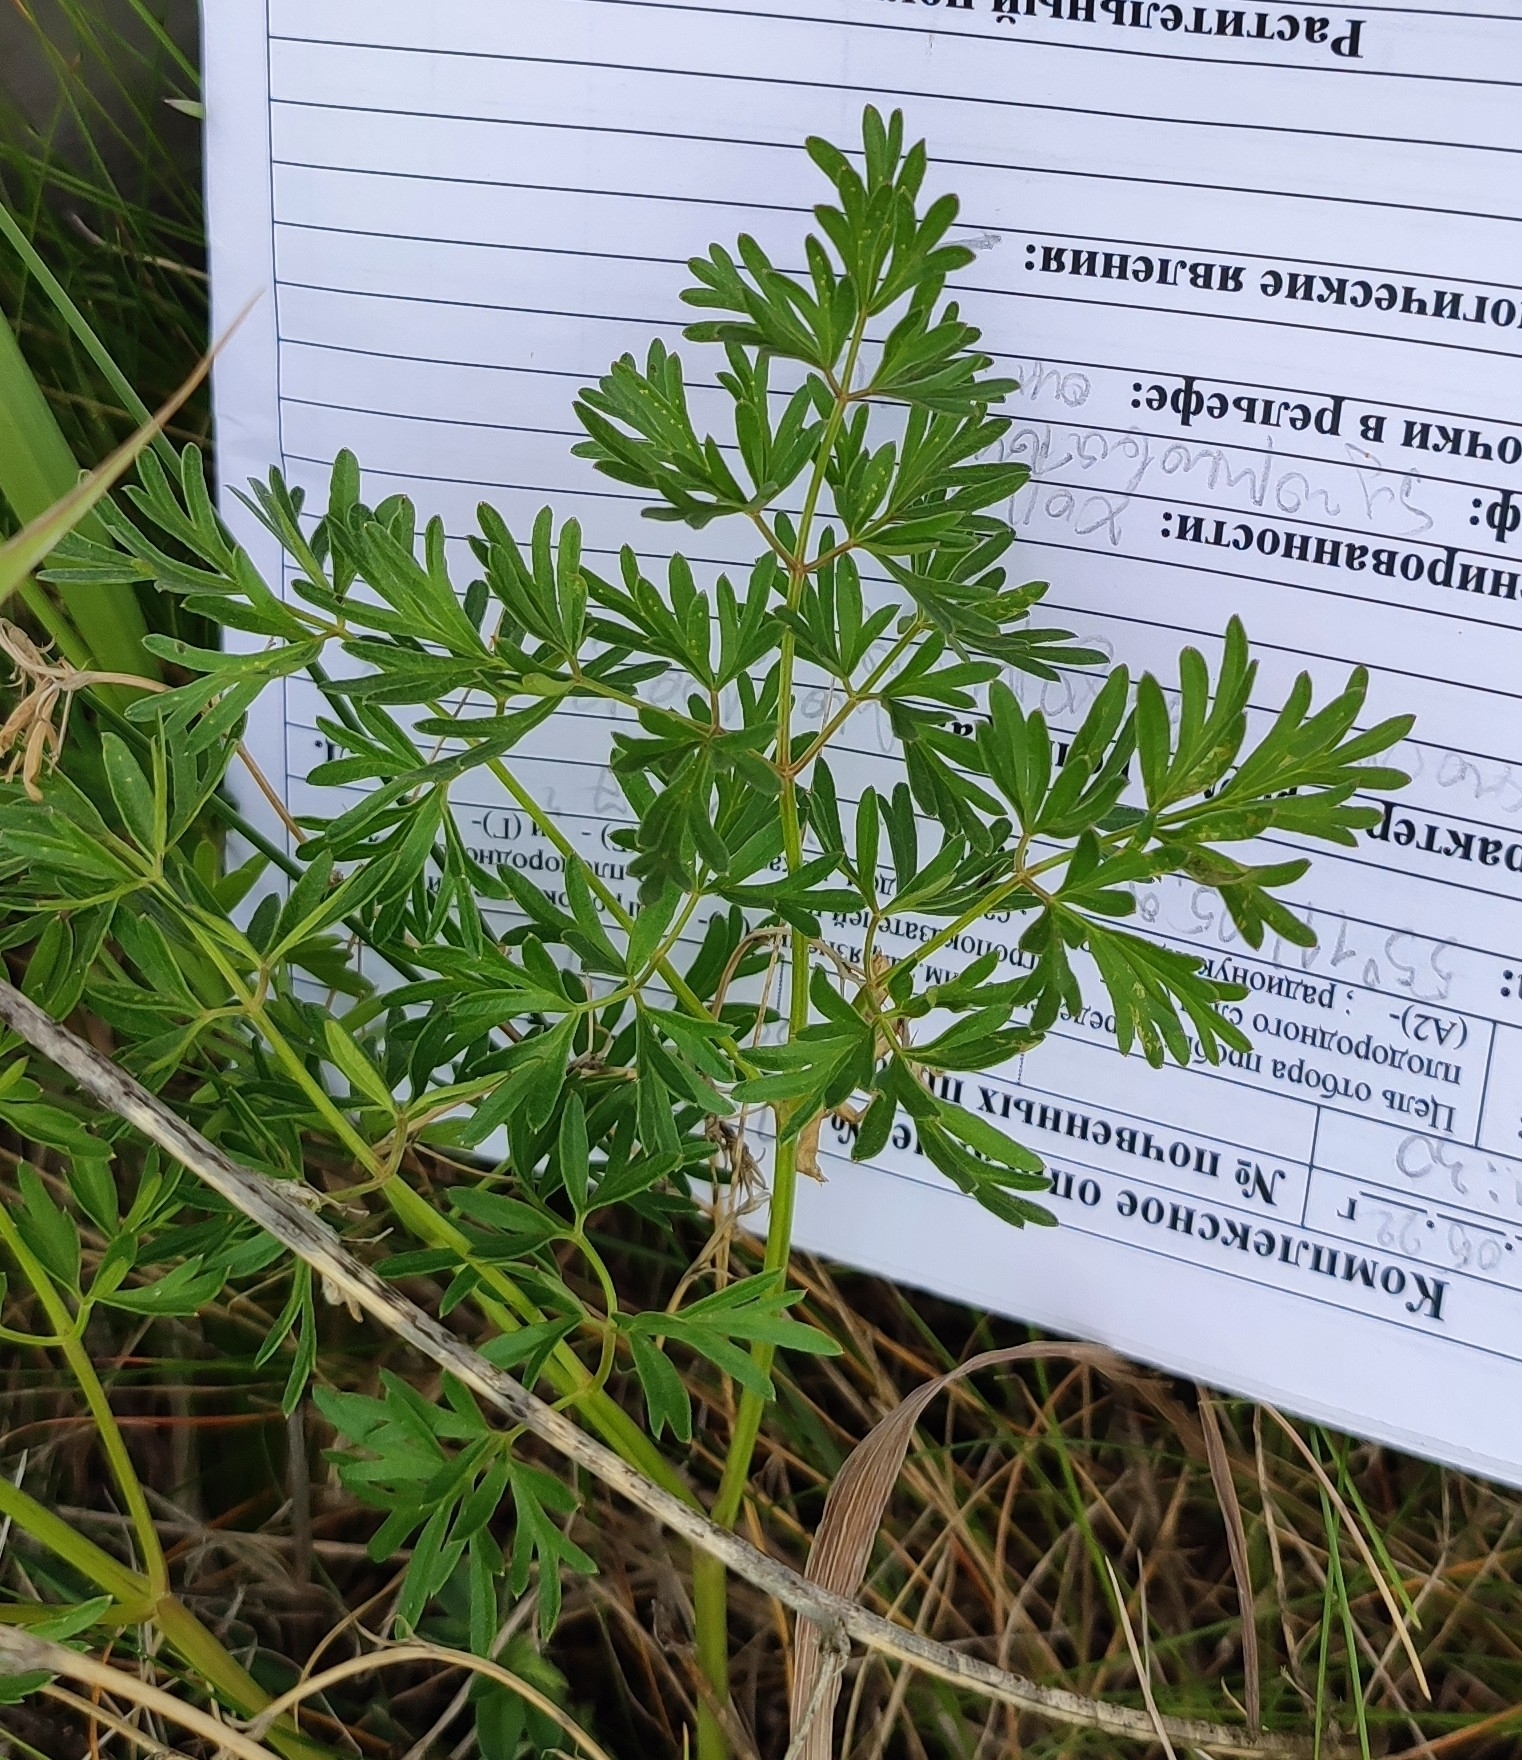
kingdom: Plantae
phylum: Tracheophyta
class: Magnoliopsida
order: Apiales
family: Apiaceae
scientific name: Apiaceae
